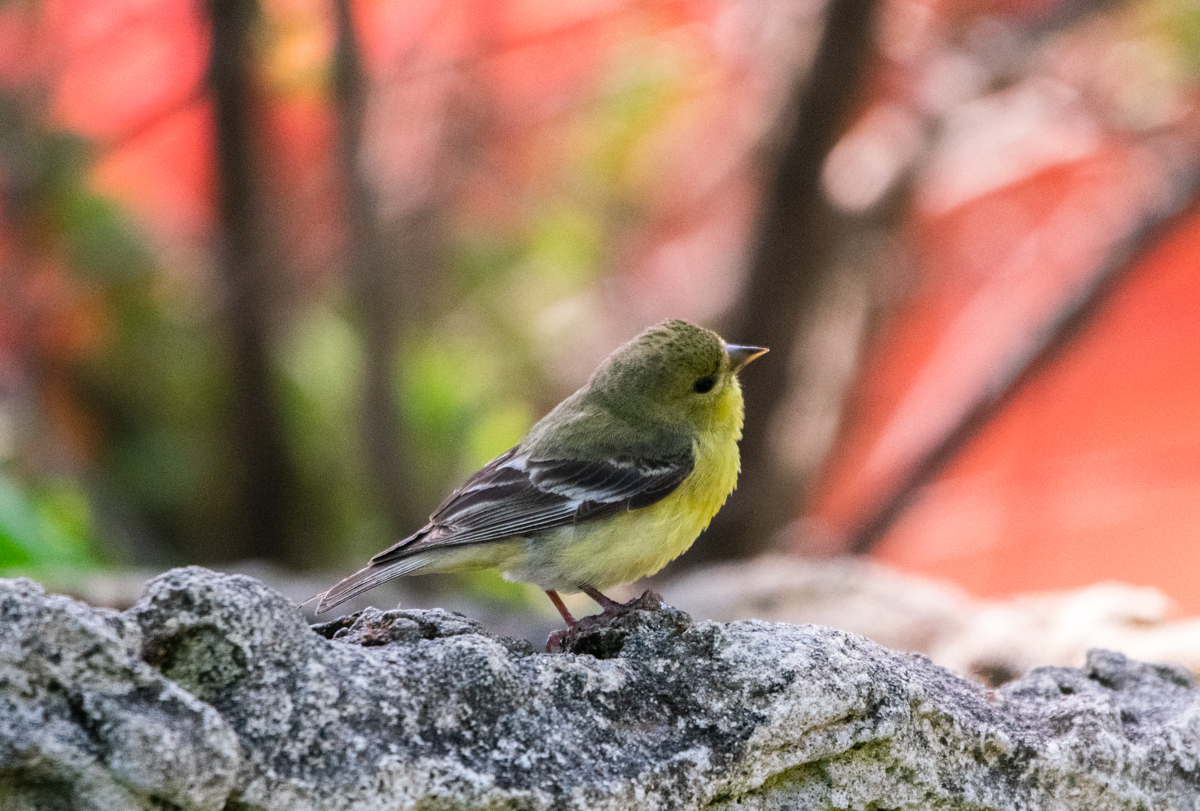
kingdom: Animalia
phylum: Chordata
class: Aves
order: Passeriformes
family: Fringillidae
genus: Spinus
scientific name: Spinus psaltria
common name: Lesser goldfinch
